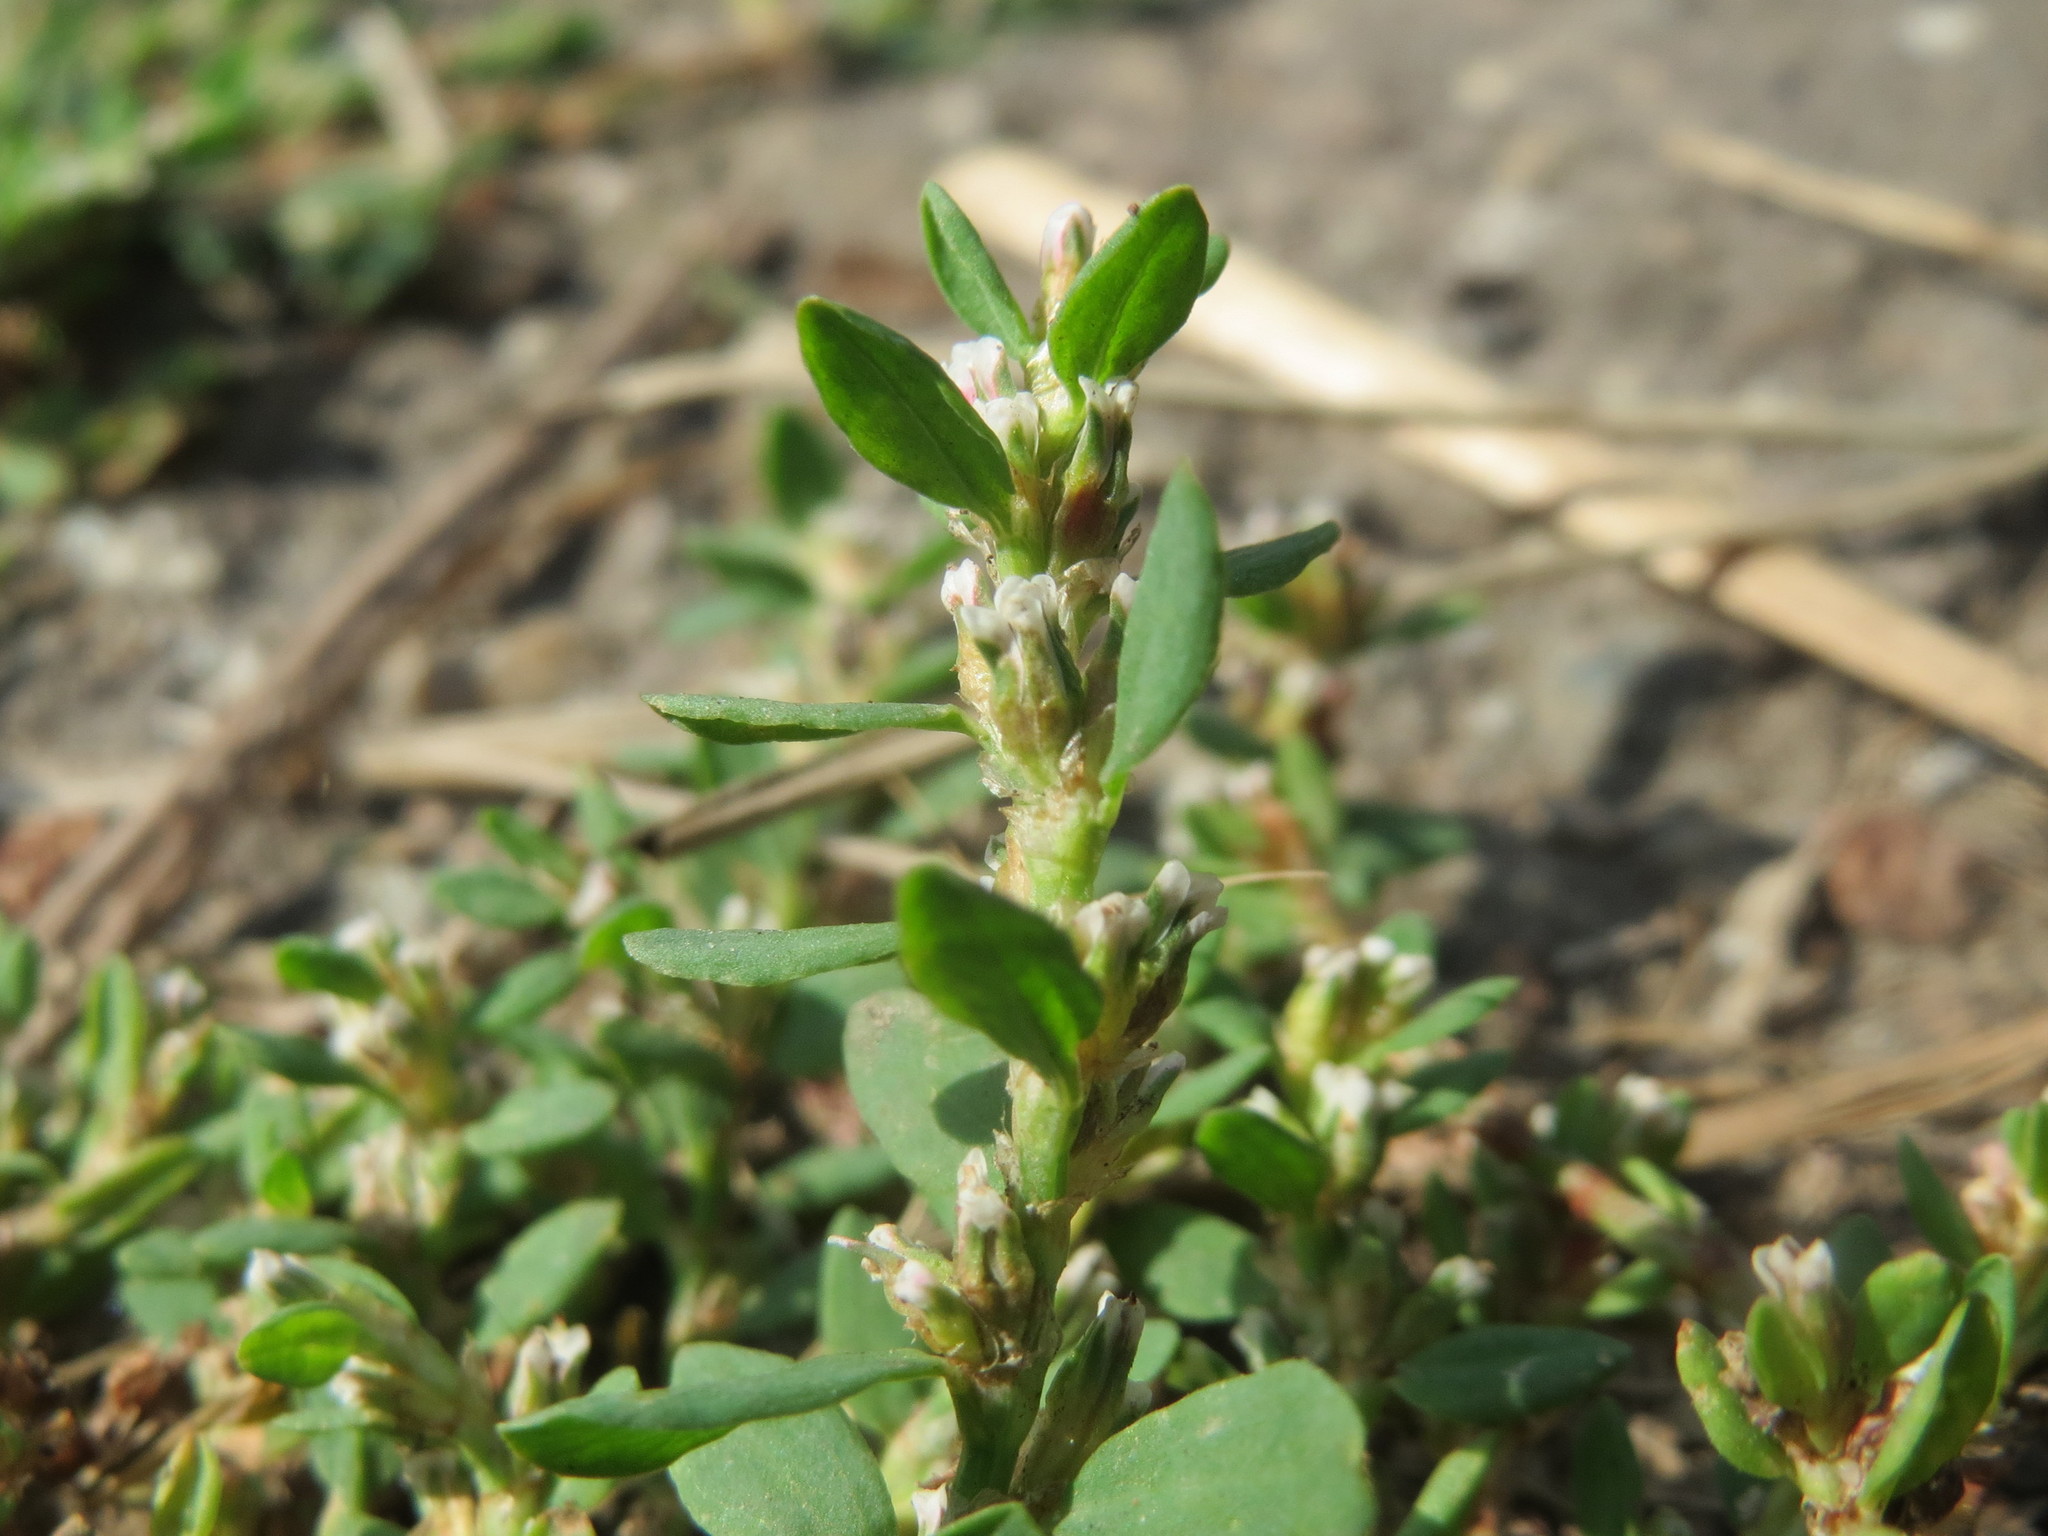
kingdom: Plantae
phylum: Tracheophyta
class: Magnoliopsida
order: Caryophyllales
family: Polygonaceae
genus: Polygonum
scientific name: Polygonum arenastrum
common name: Equal-leaved knotgrass
